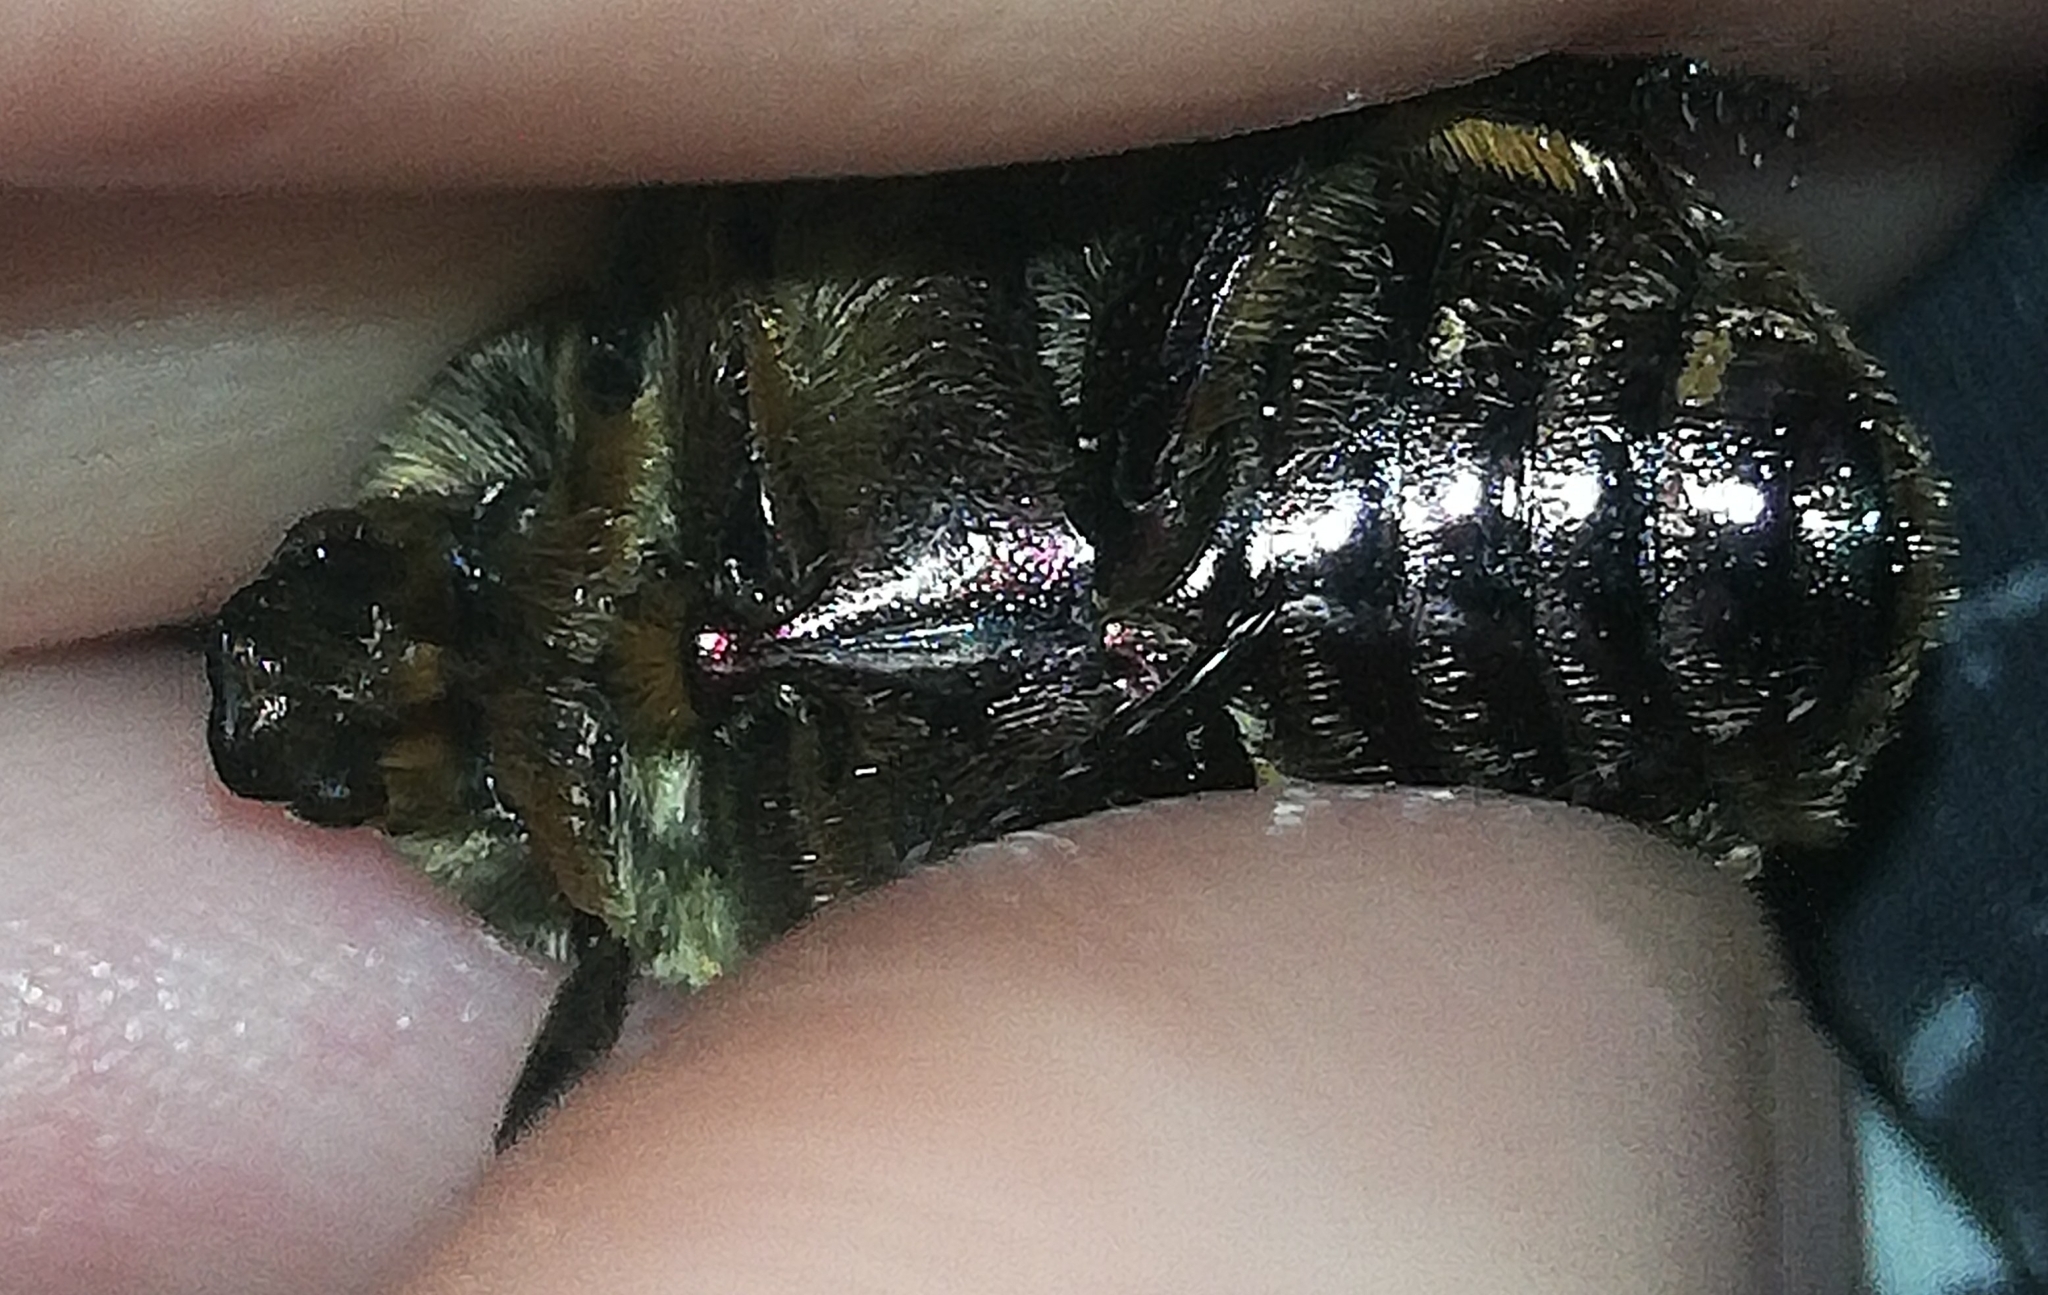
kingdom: Animalia
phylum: Arthropoda
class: Insecta
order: Coleoptera
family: Scarabaeidae
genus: Protaetia
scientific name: Protaetia cuprea
